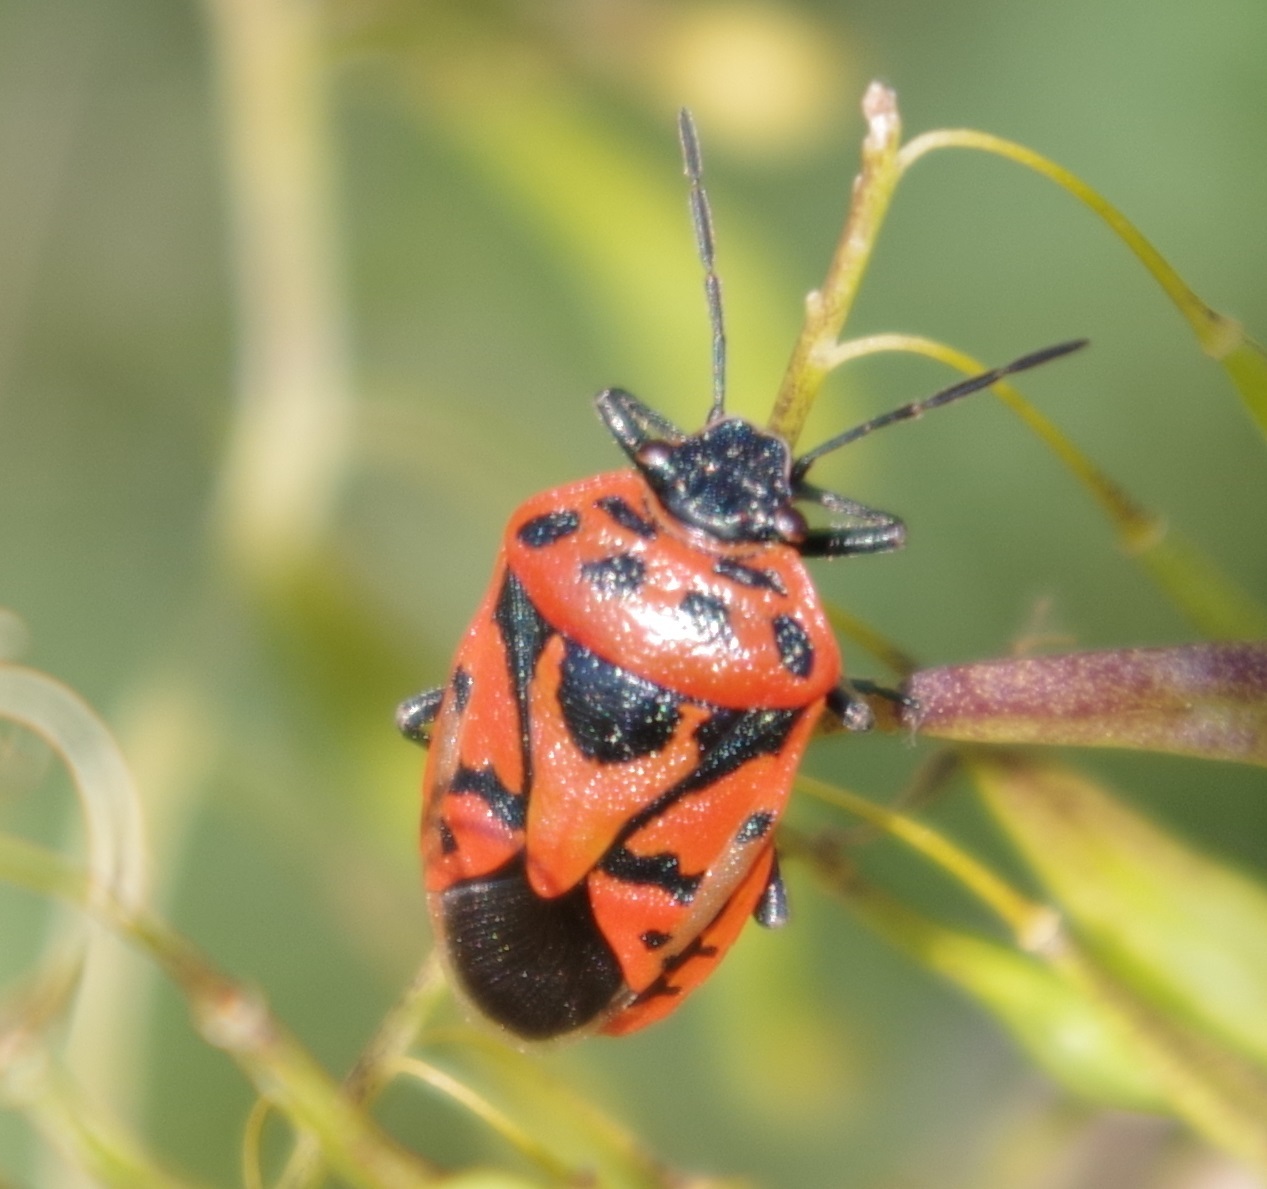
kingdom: Animalia
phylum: Arthropoda
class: Insecta
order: Hemiptera
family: Pentatomidae
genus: Eurydema
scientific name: Eurydema ornata
